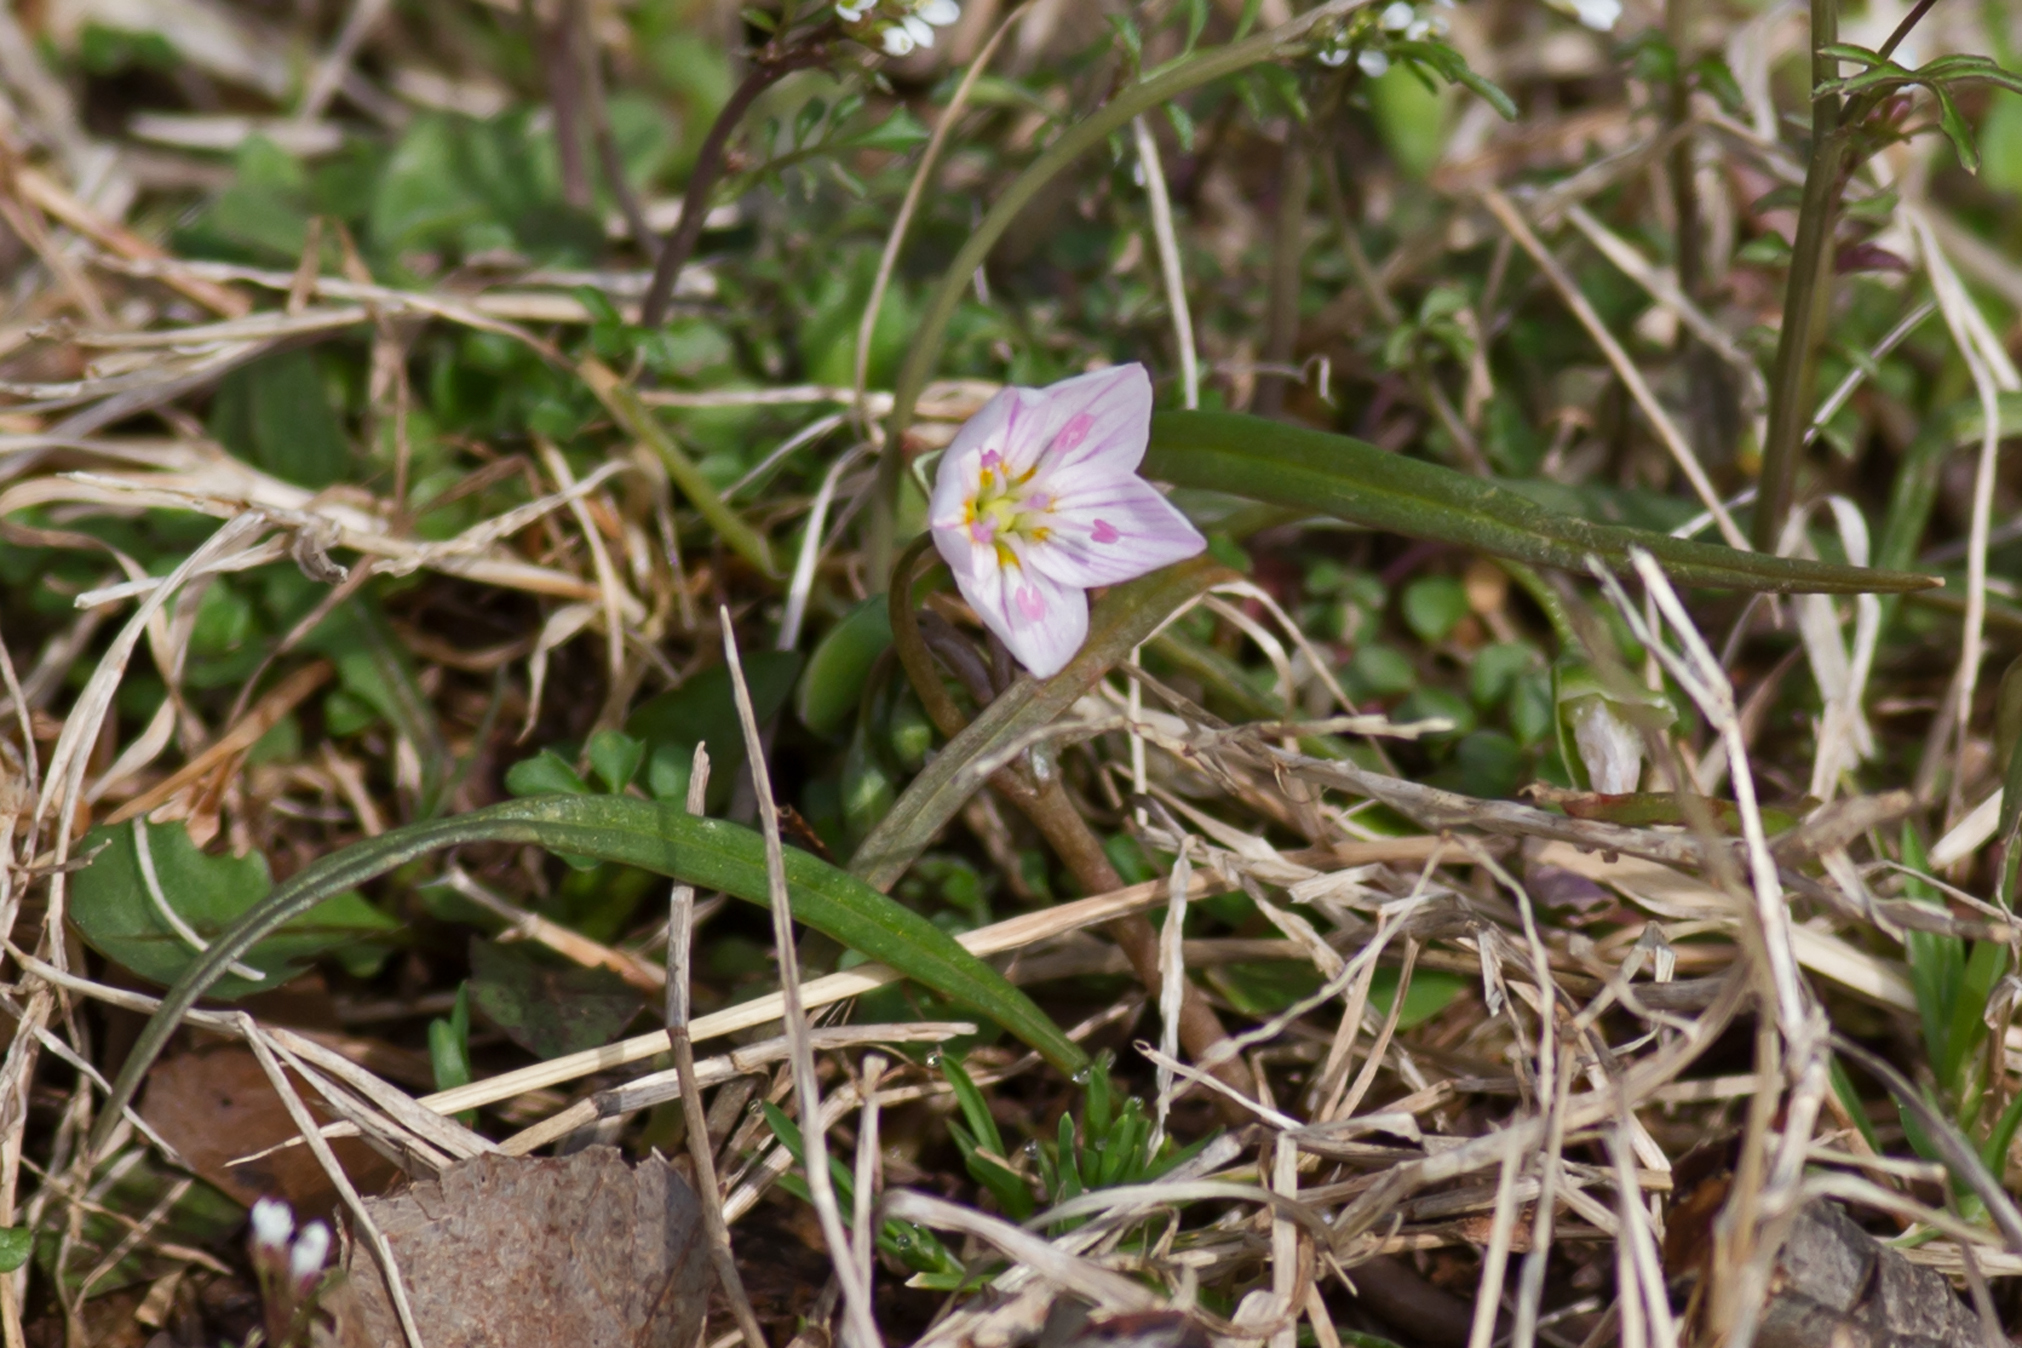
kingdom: Plantae
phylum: Tracheophyta
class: Magnoliopsida
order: Caryophyllales
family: Montiaceae
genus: Claytonia
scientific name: Claytonia virginica
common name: Virginia springbeauty
